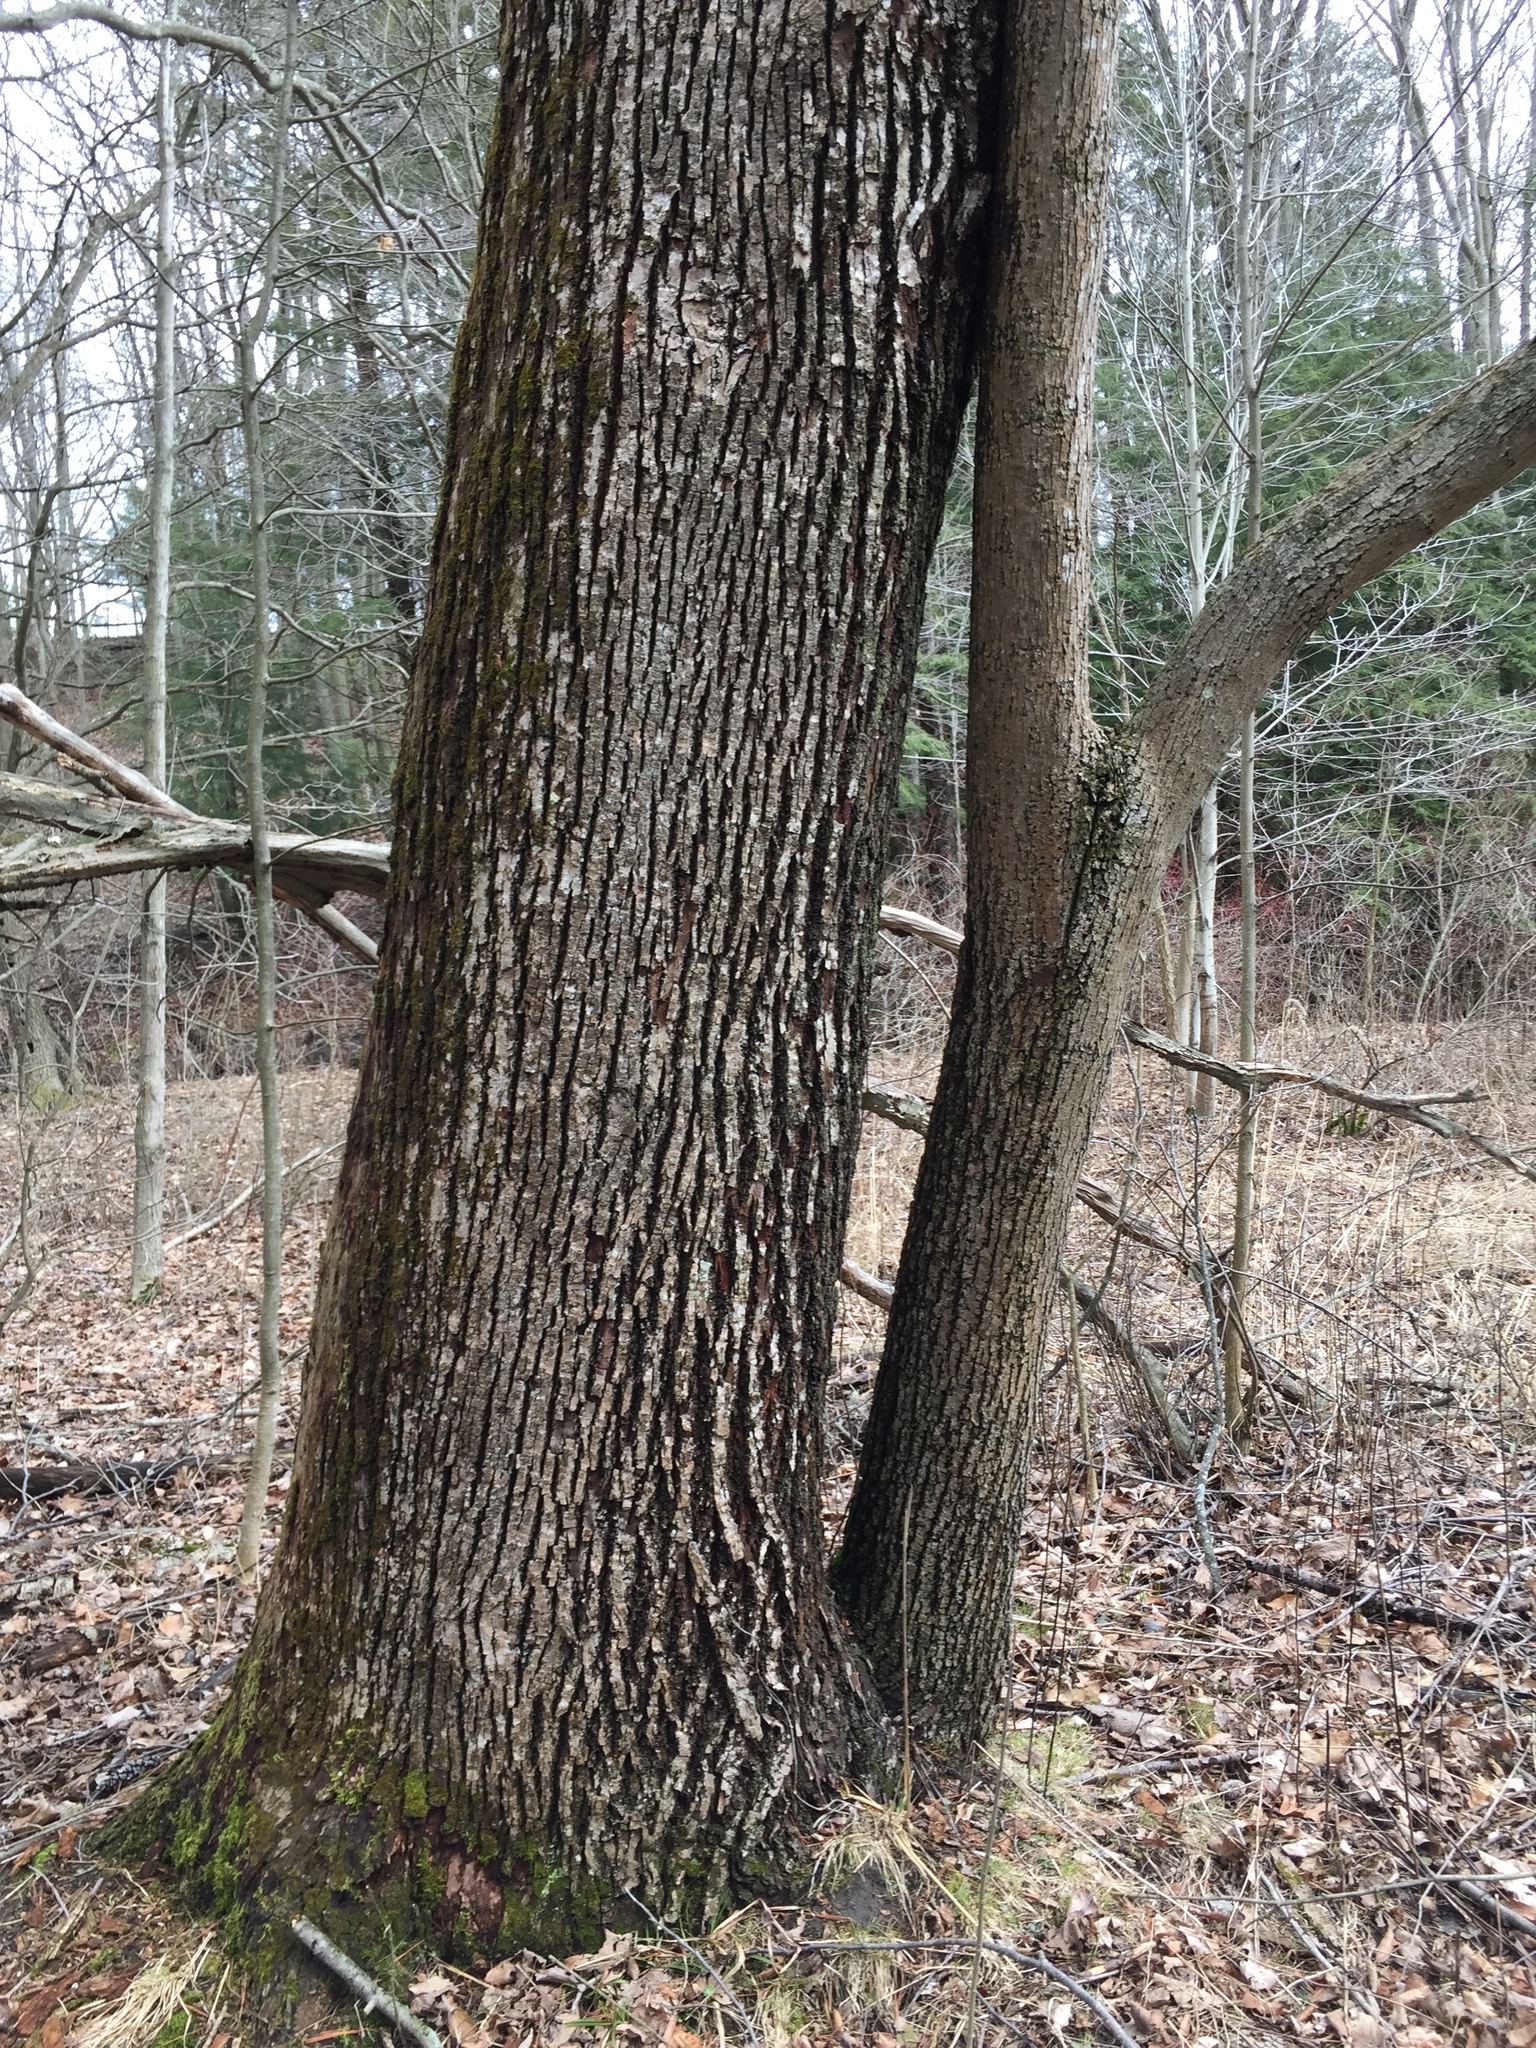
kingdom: Plantae
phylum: Tracheophyta
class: Magnoliopsida
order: Malvales
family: Malvaceae
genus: Tilia
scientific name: Tilia americana
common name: Basswood
